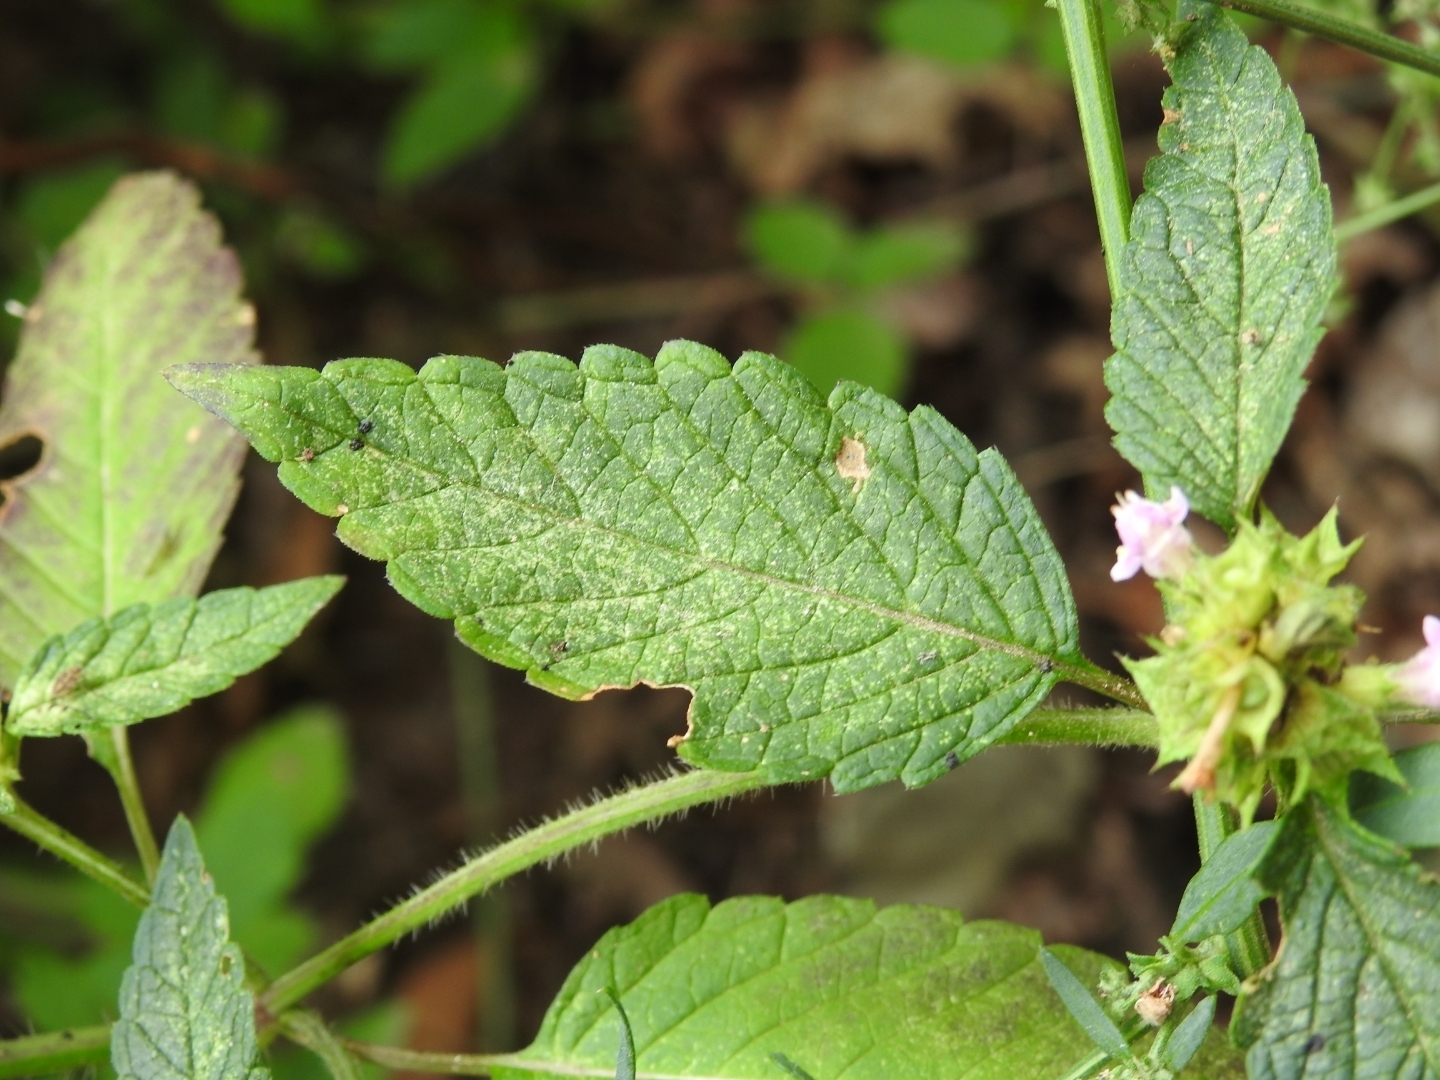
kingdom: Plantae
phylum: Tracheophyta
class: Magnoliopsida
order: Lamiales
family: Lamiaceae
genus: Galeopsis
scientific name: Galeopsis tetrahit
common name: Common hemp-nettle
